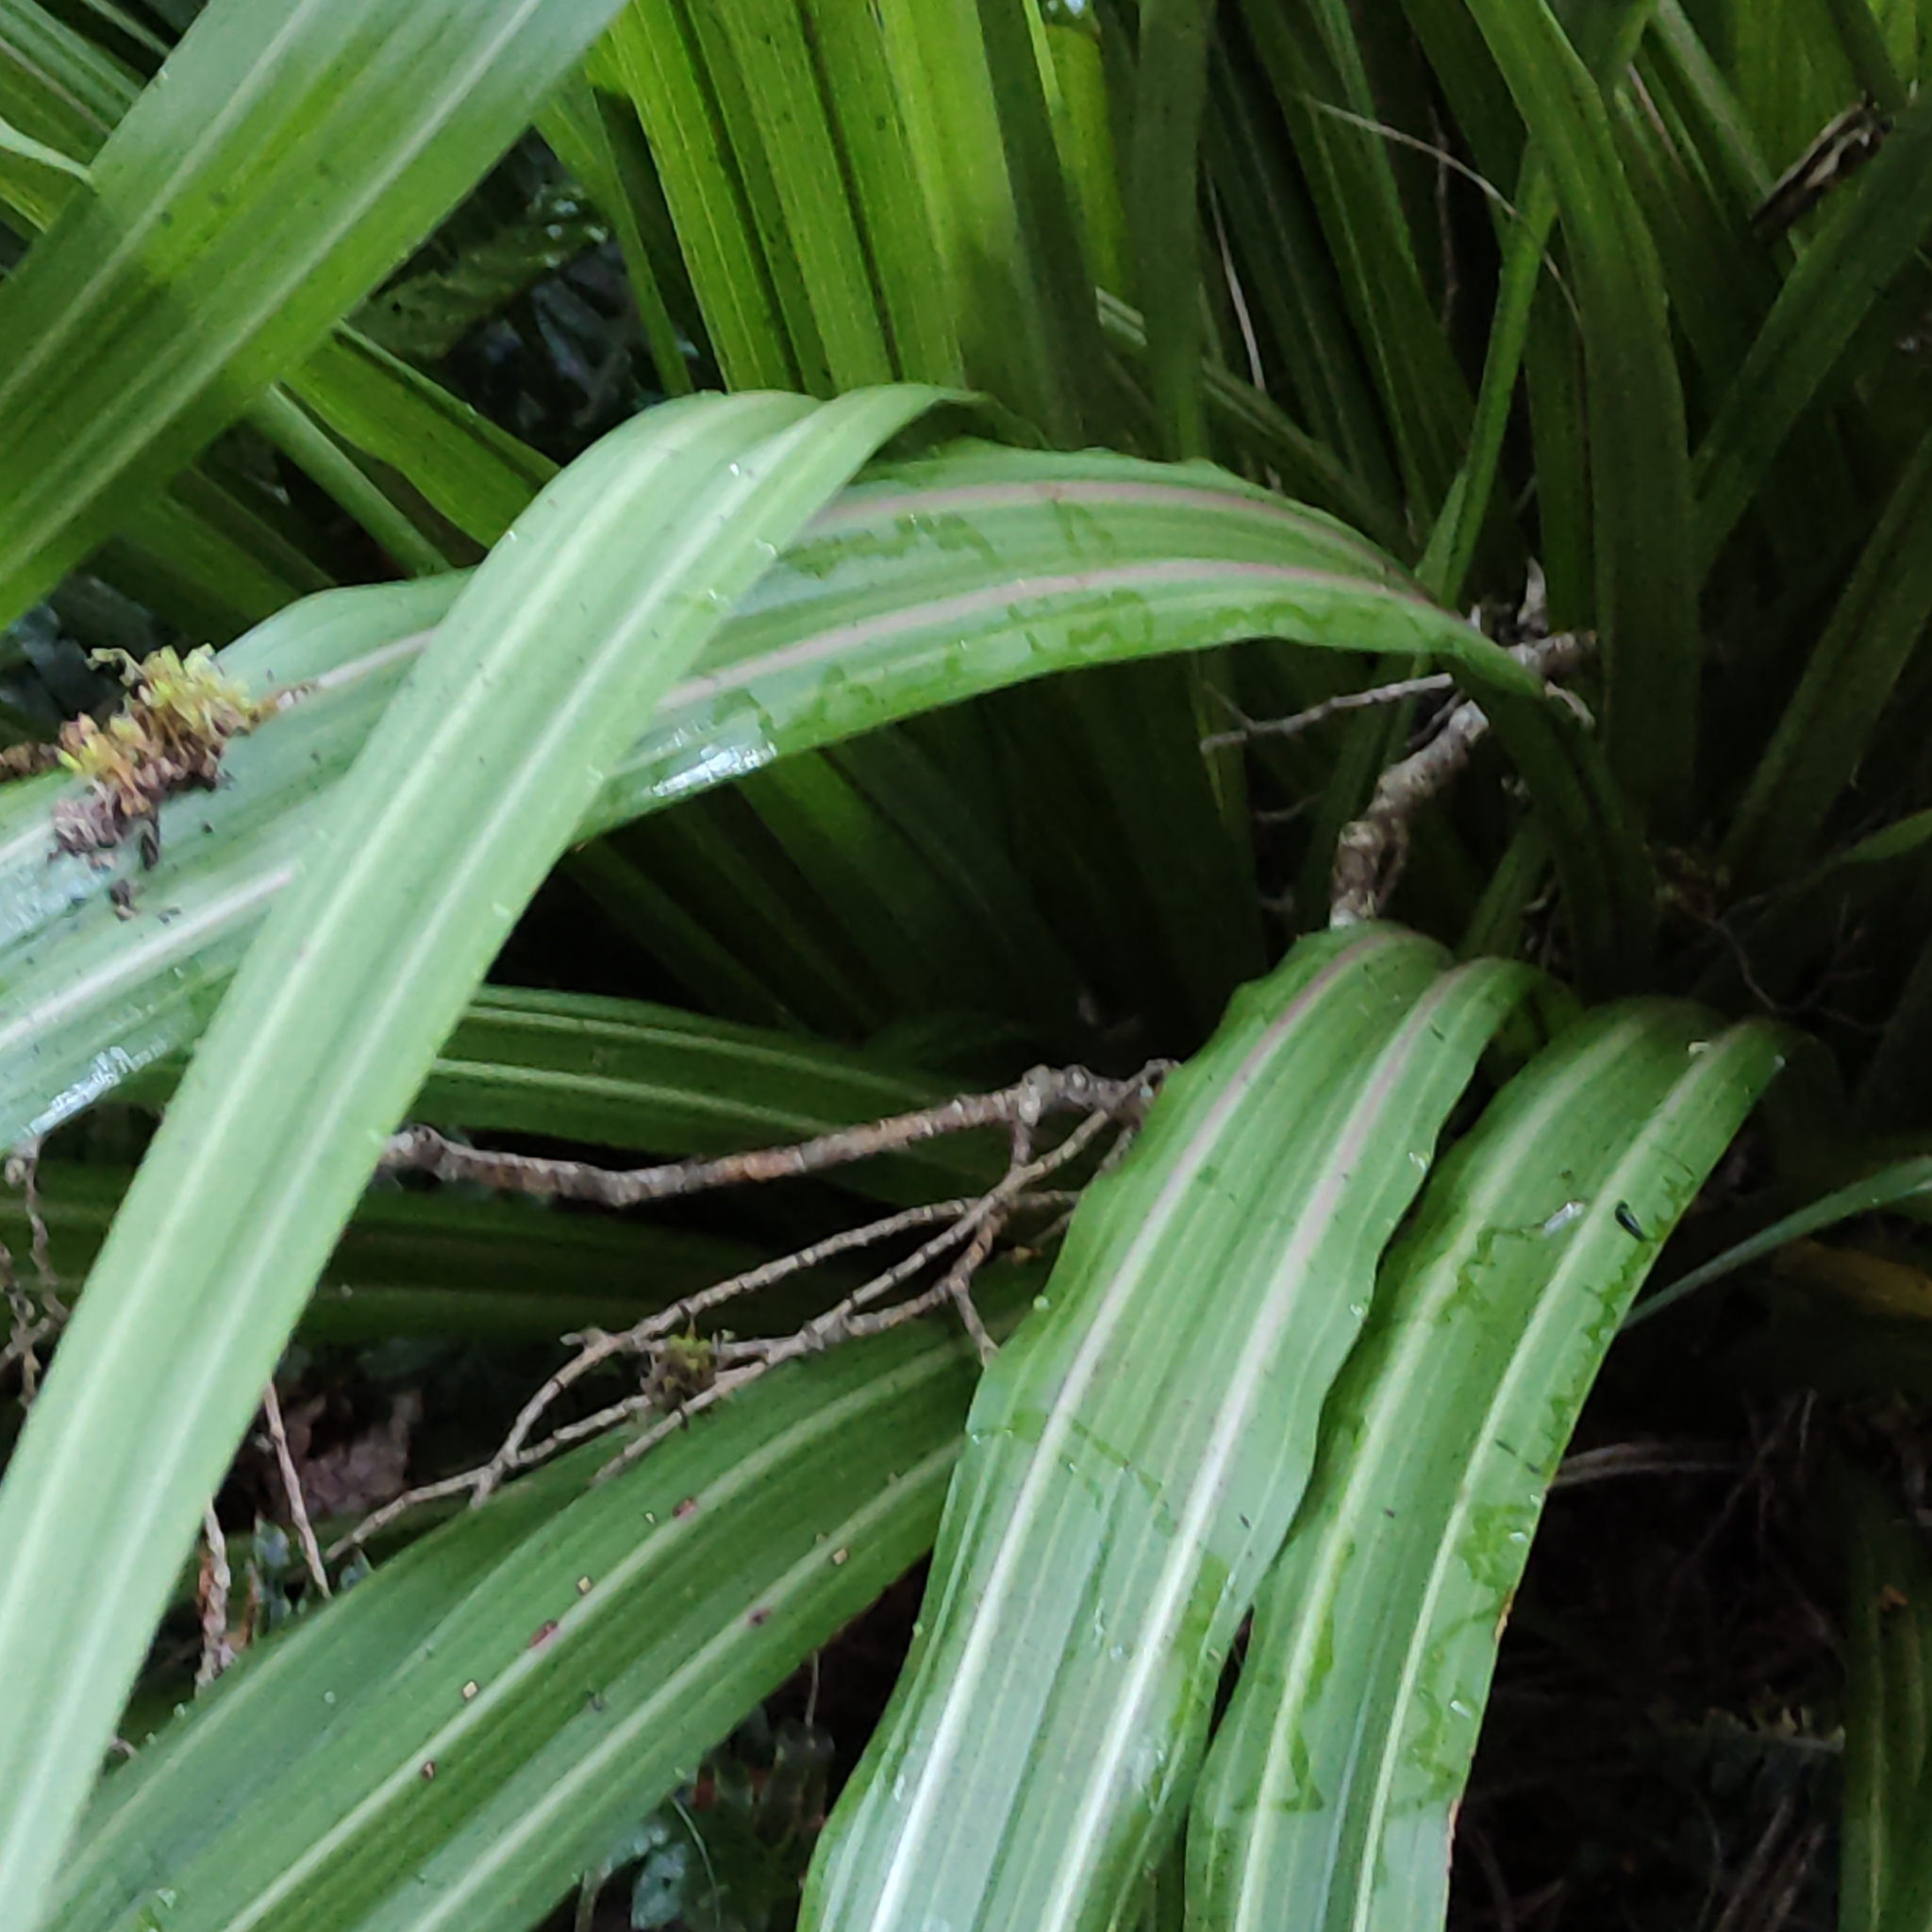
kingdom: Plantae
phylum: Tracheophyta
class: Liliopsida
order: Asparagales
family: Asteliaceae
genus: Astelia
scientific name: Astelia fragrans
